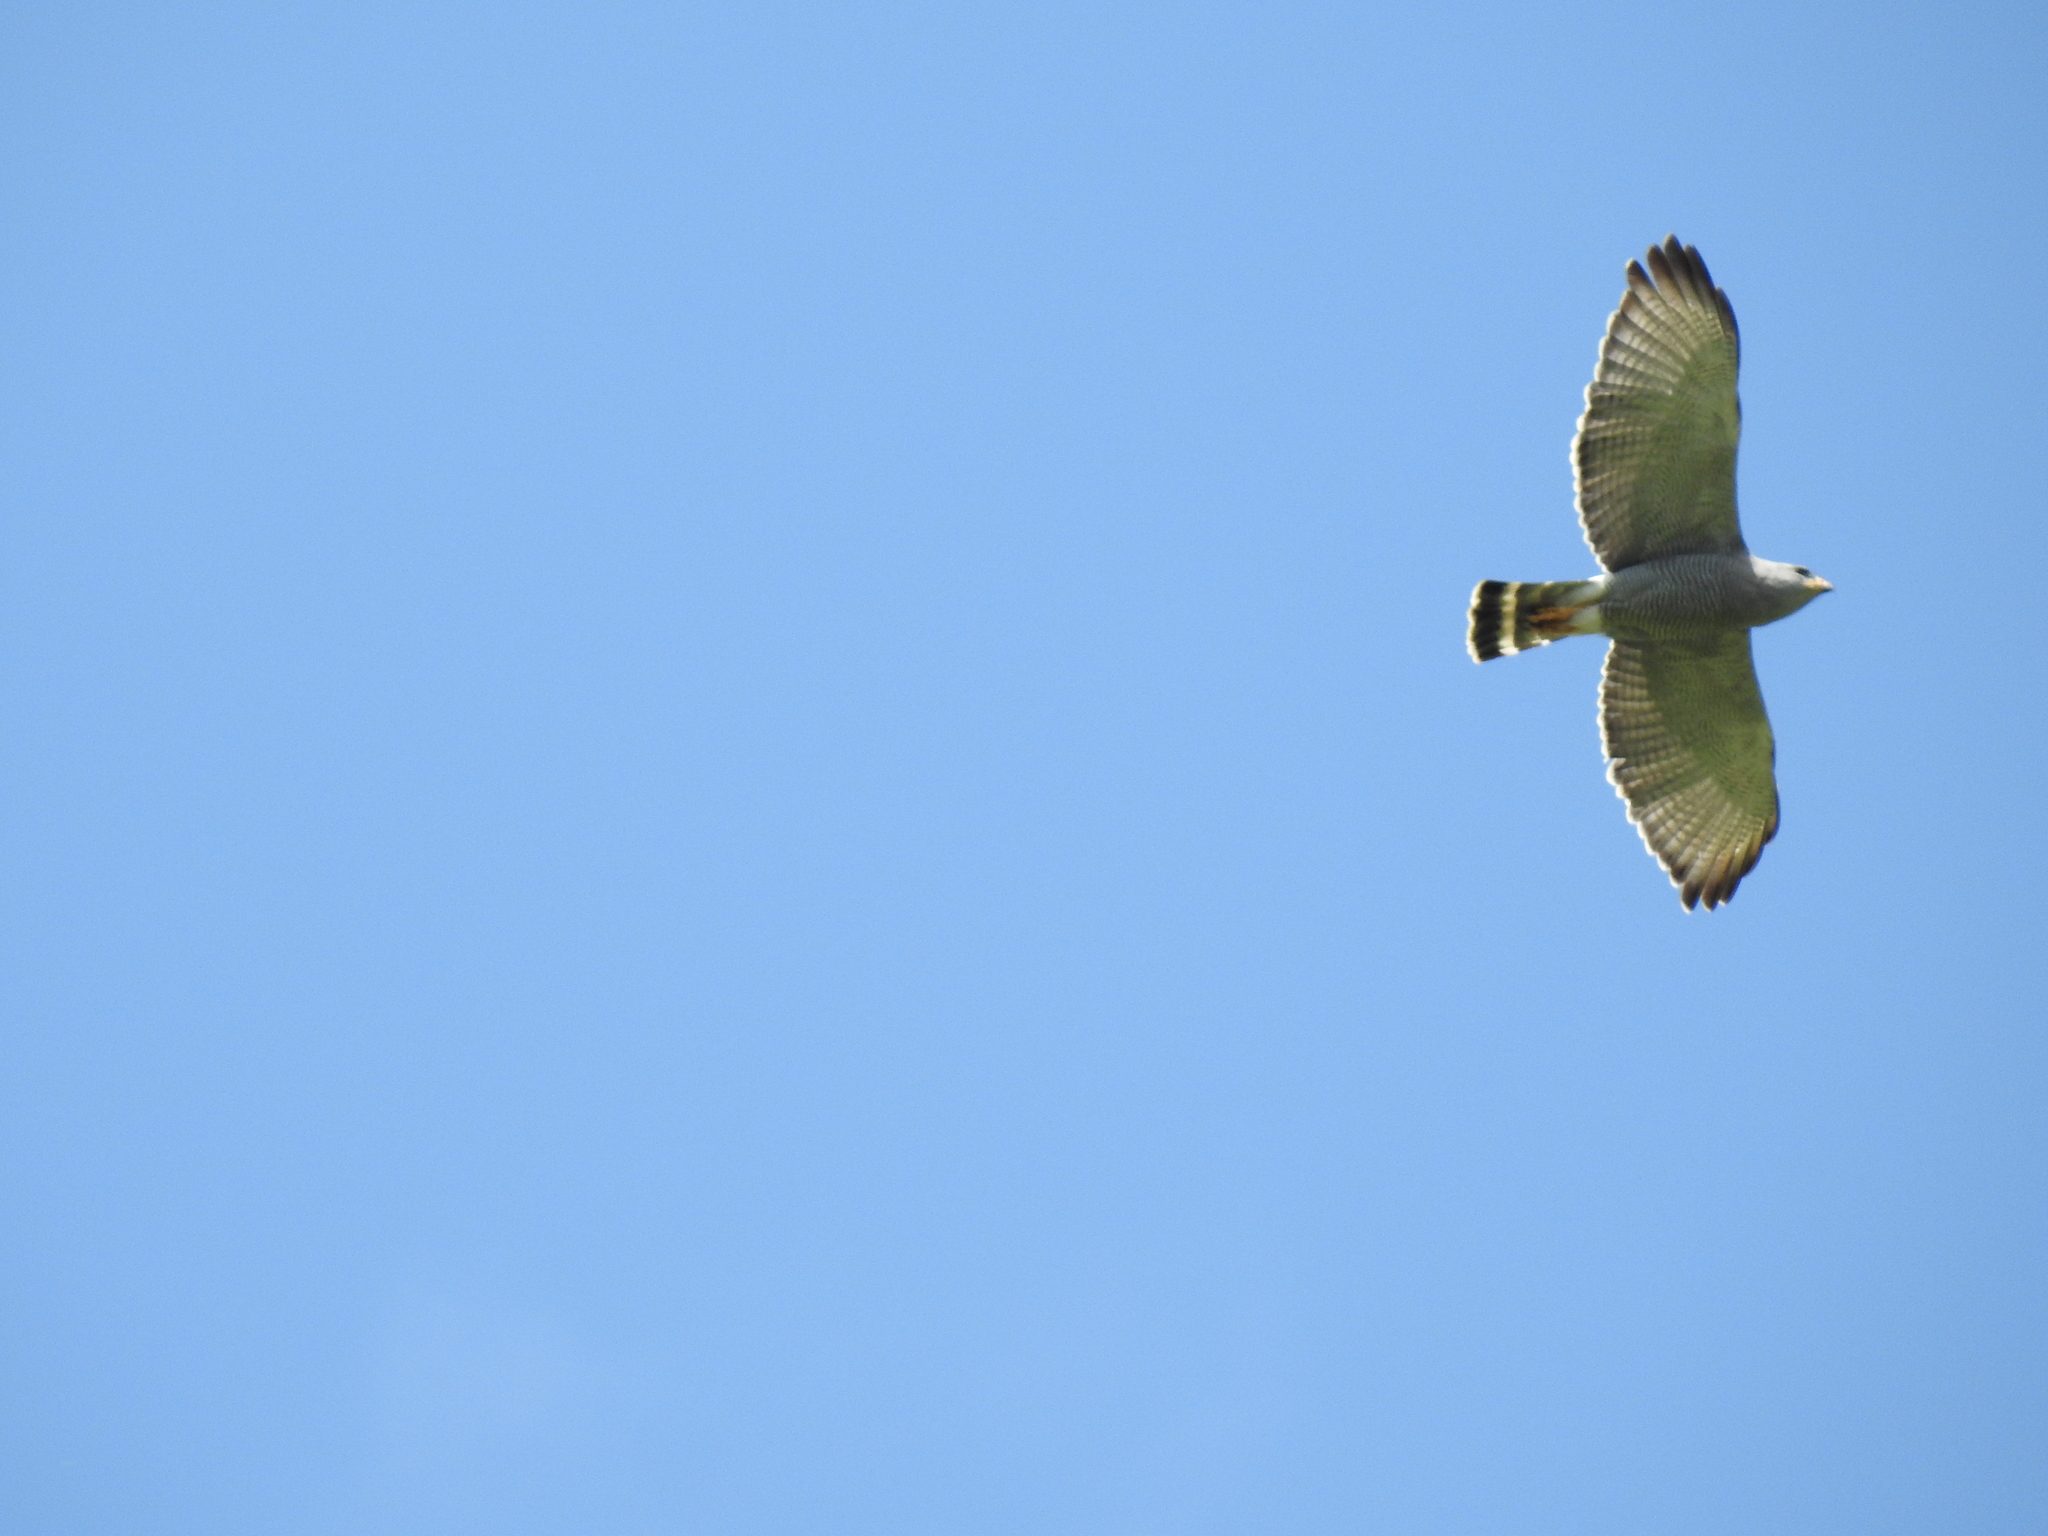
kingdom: Animalia
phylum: Chordata
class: Aves
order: Accipitriformes
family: Accipitridae
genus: Buteo
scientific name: Buteo nitidus
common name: Grey-lined hawk
